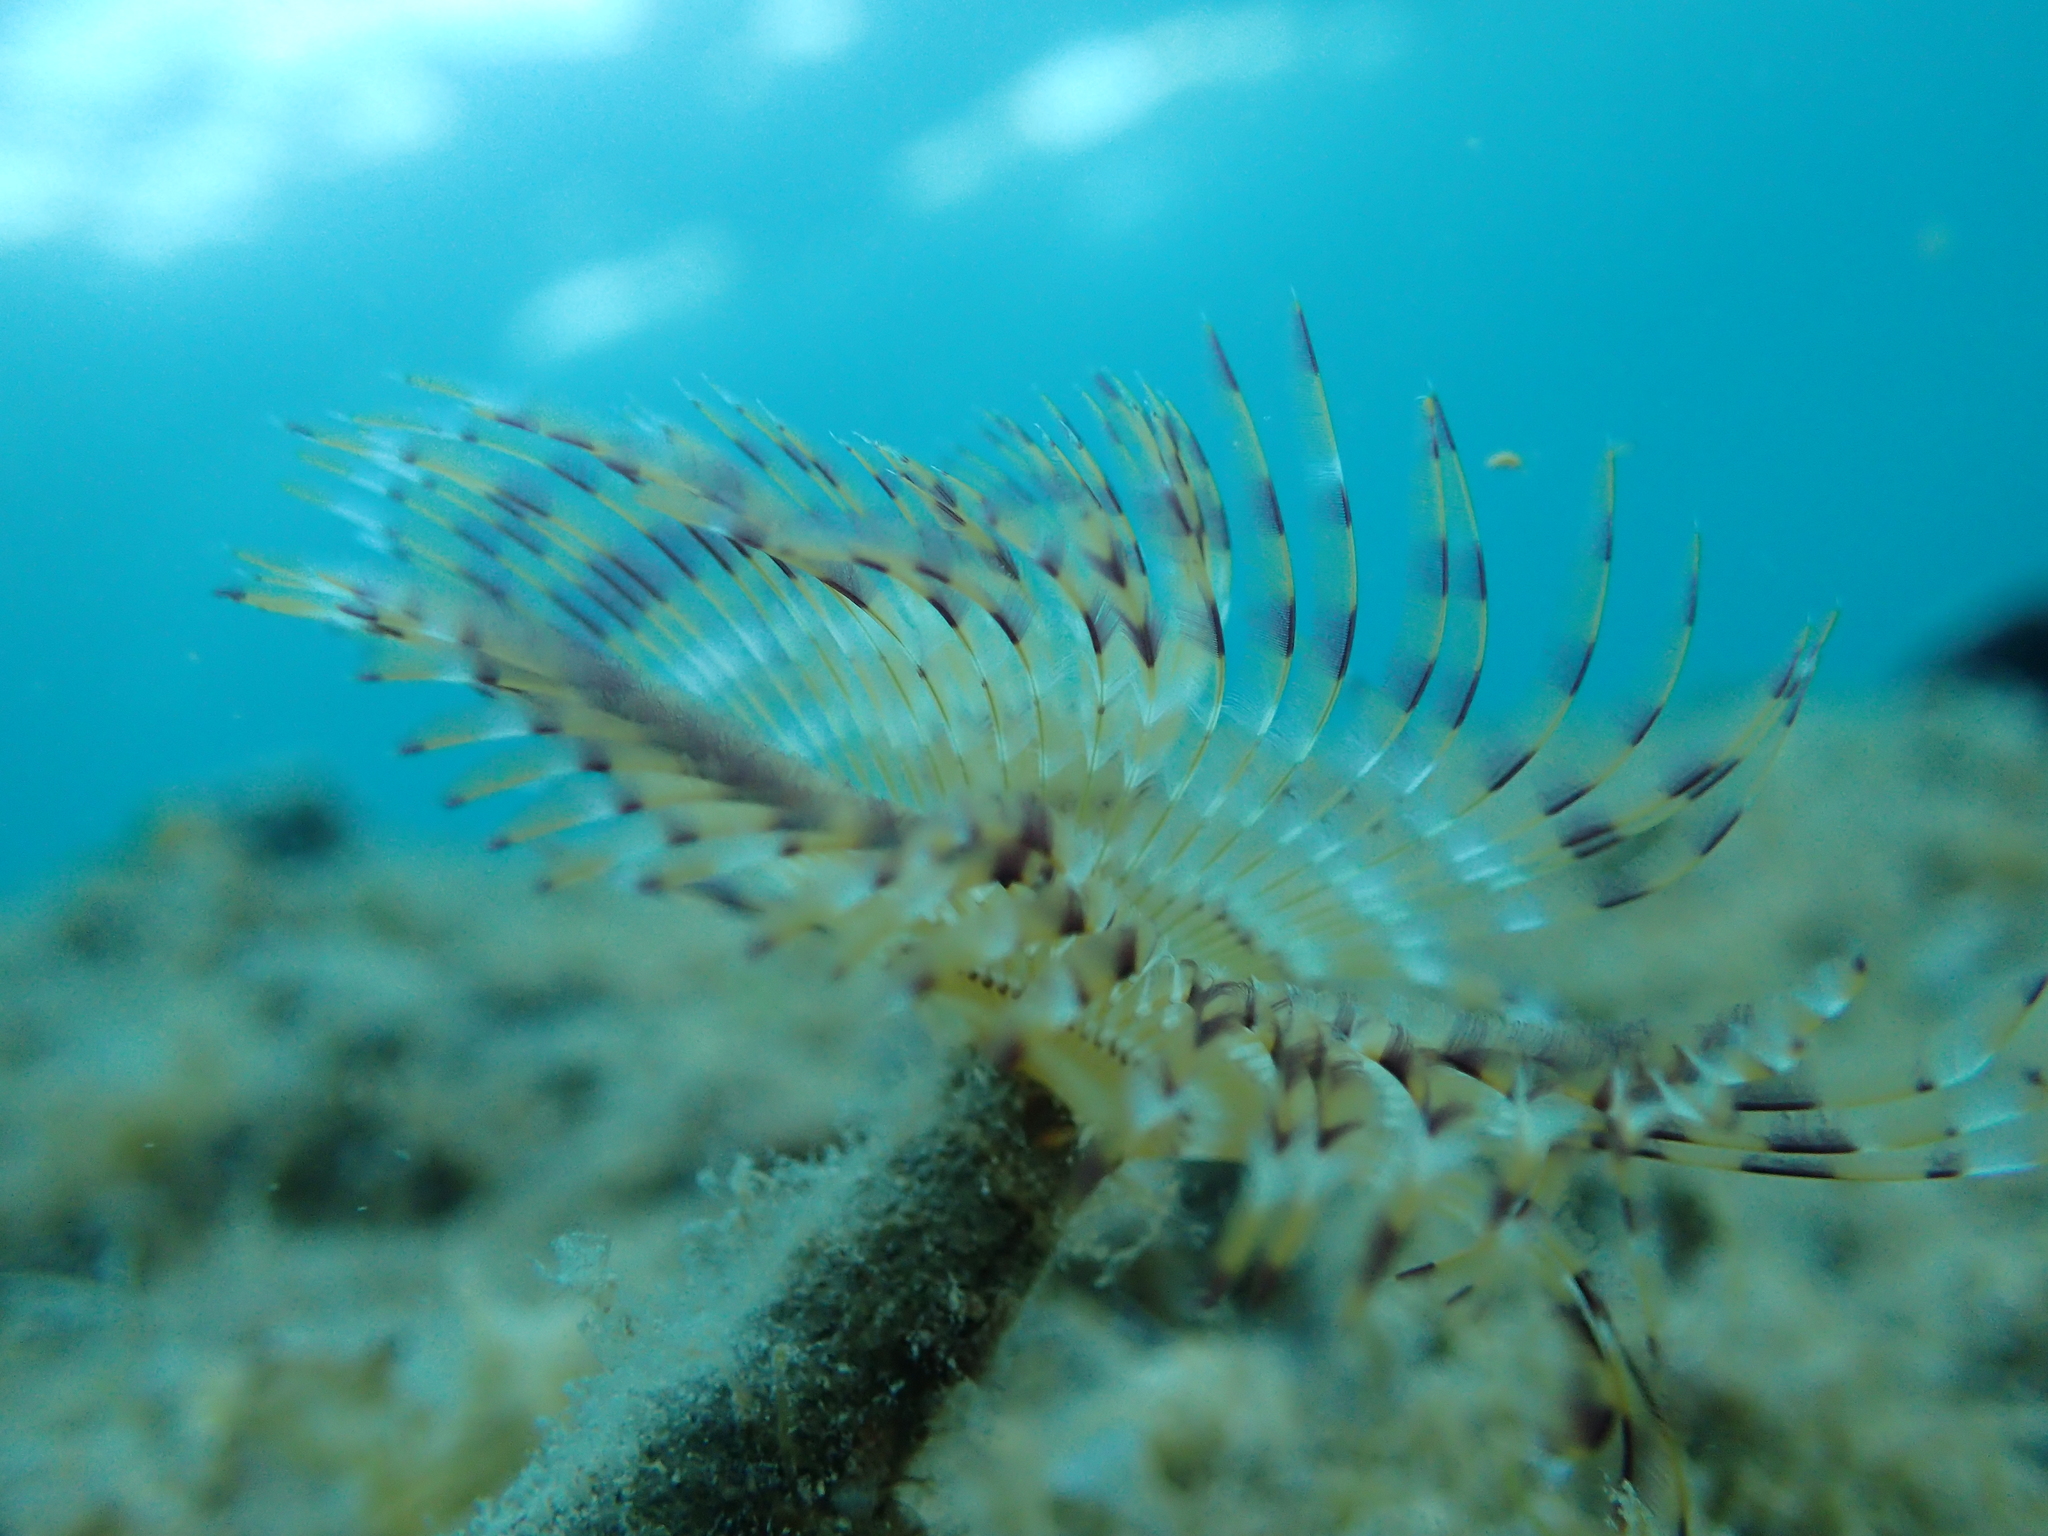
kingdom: Animalia
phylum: Annelida
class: Polychaeta
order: Sabellida
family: Sabellidae
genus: Sabella
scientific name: Sabella spallanzanii
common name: Feather duster worm
